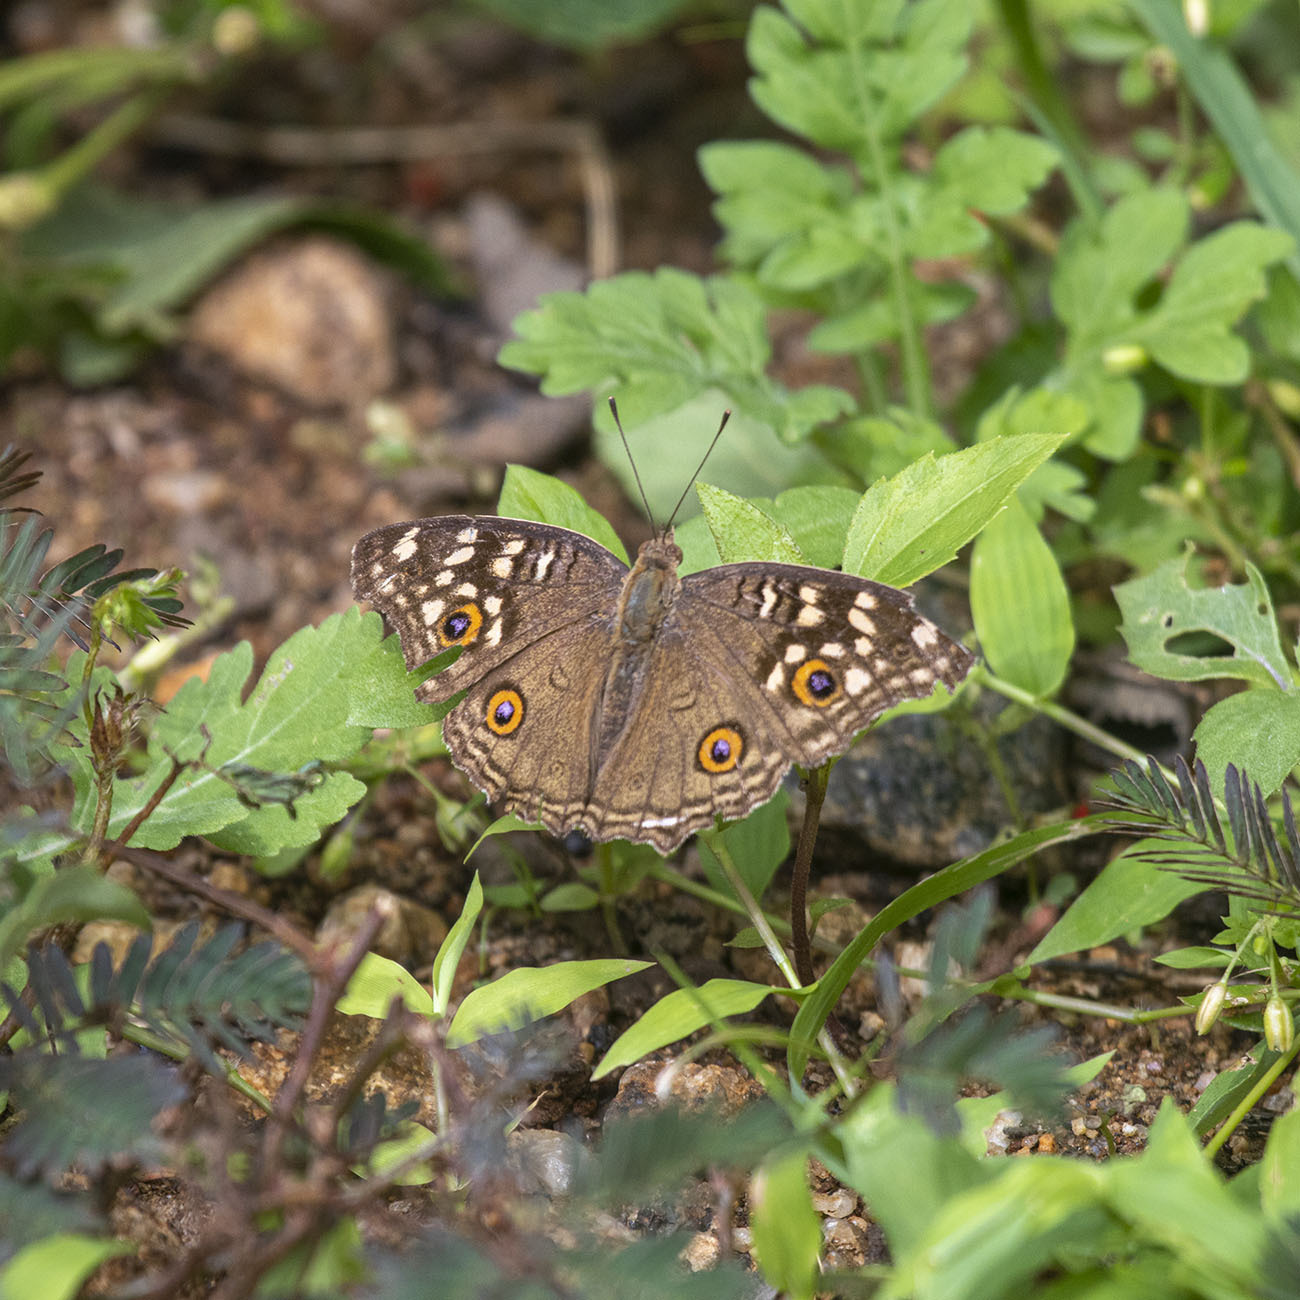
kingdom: Animalia
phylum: Arthropoda
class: Insecta
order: Lepidoptera
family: Nymphalidae
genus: Junonia
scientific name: Junonia lemonias
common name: Lemon pansy
